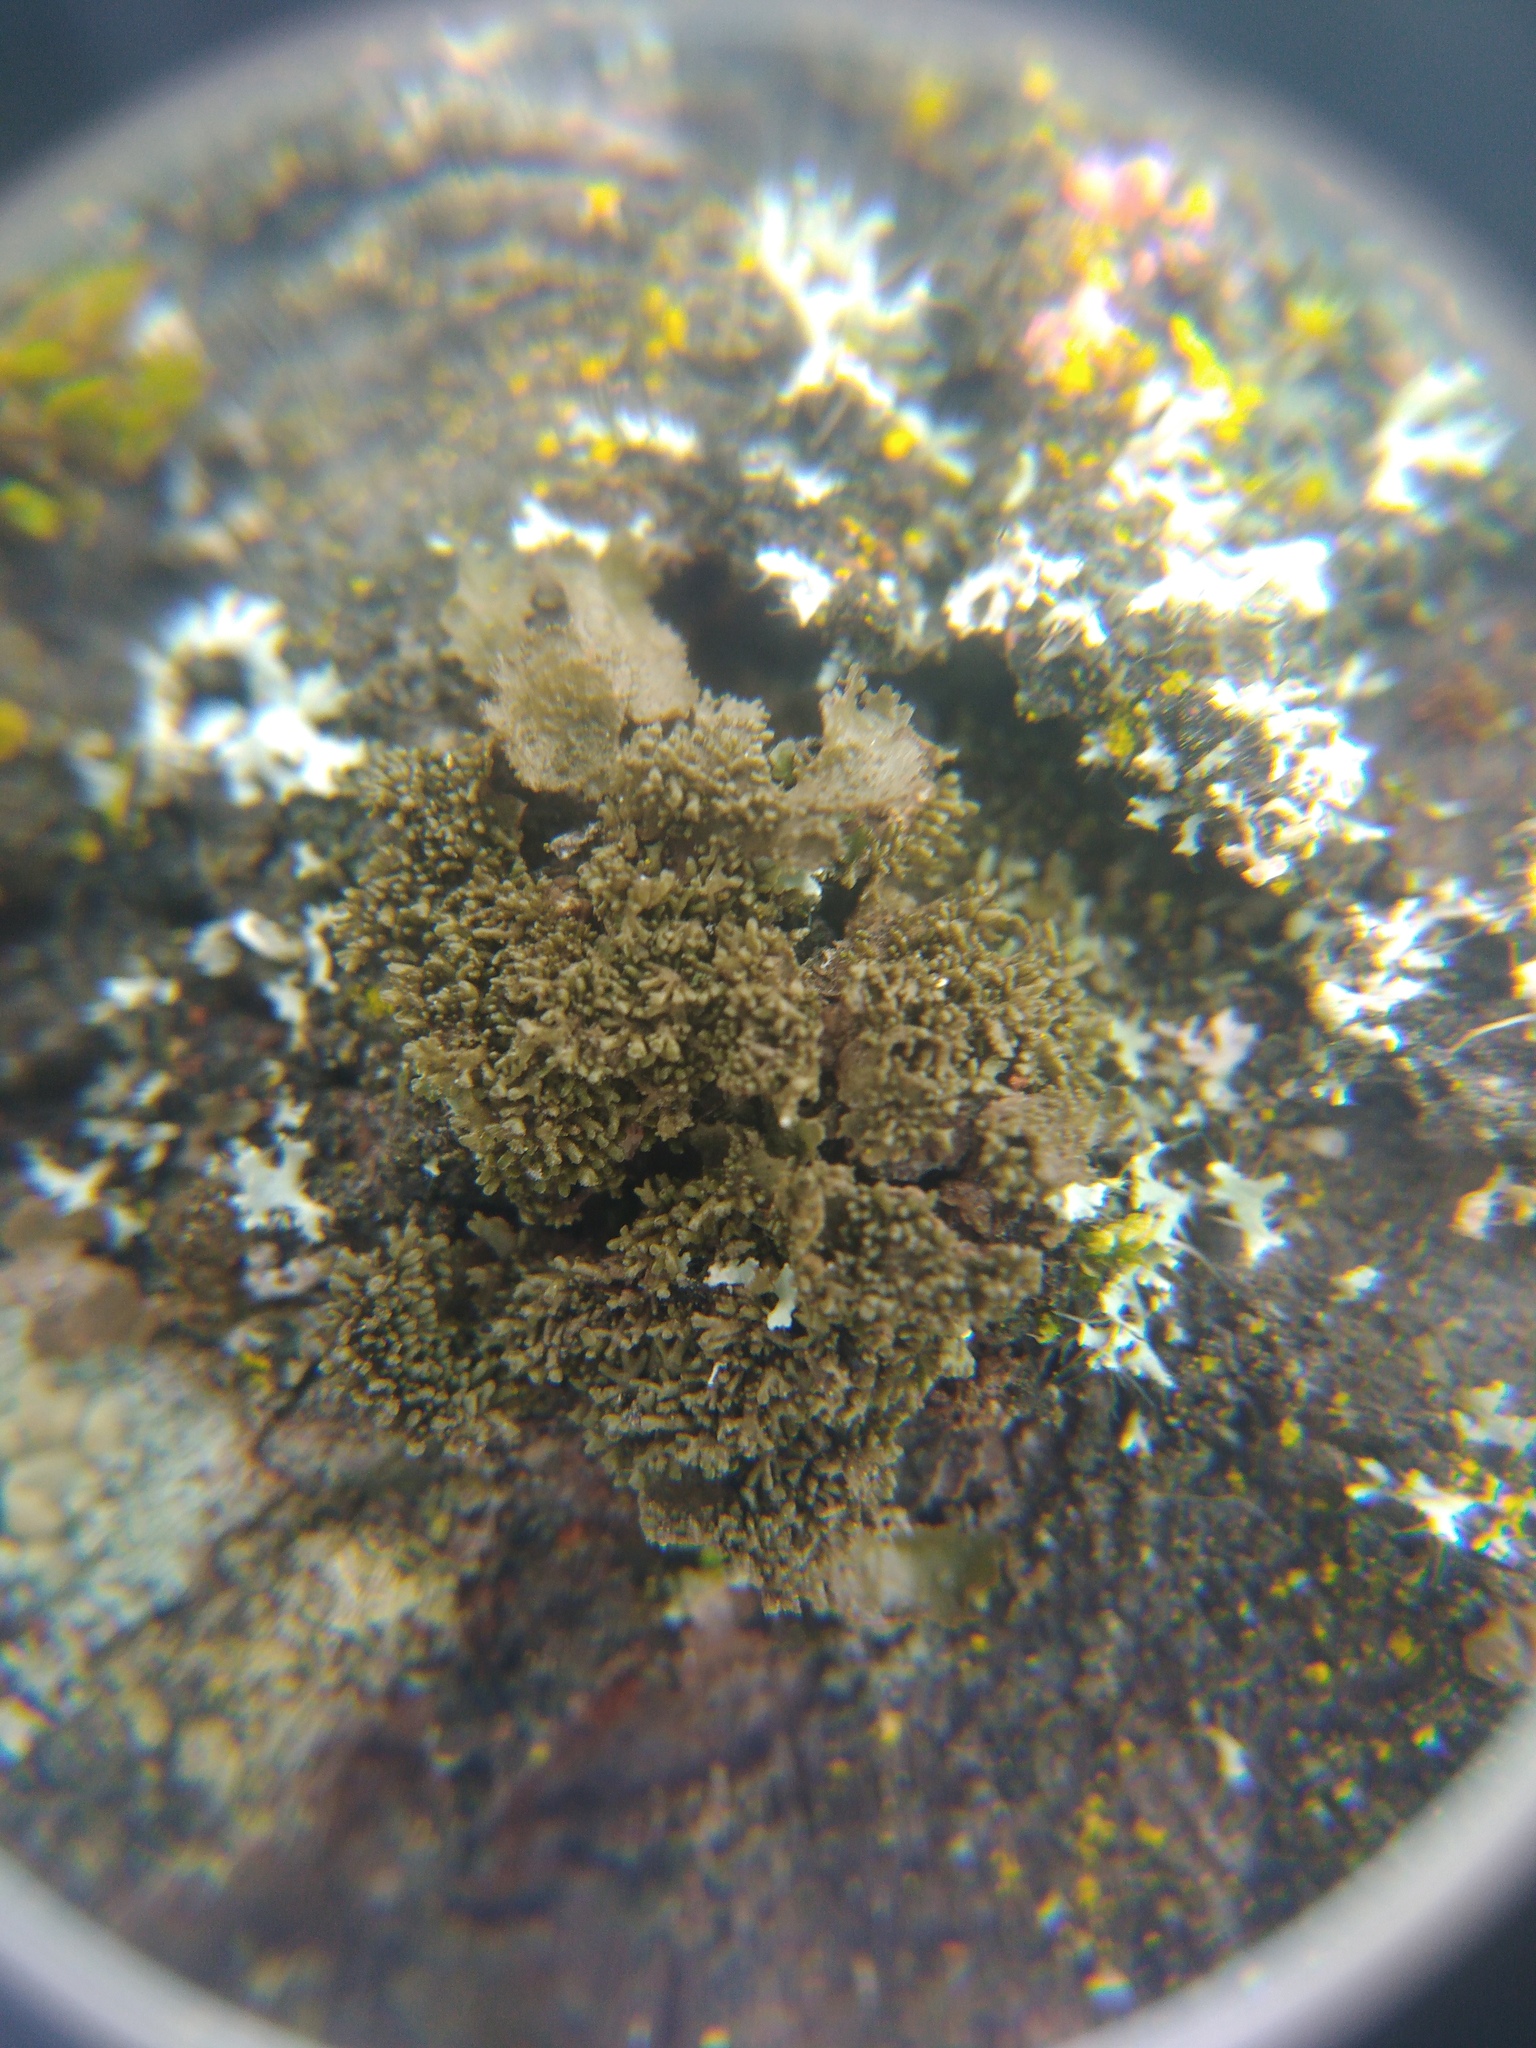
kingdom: Fungi
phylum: Ascomycota
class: Lecanoromycetes
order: Lecanorales
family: Parmeliaceae
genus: Melanohalea
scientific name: Melanohalea exasperatula
